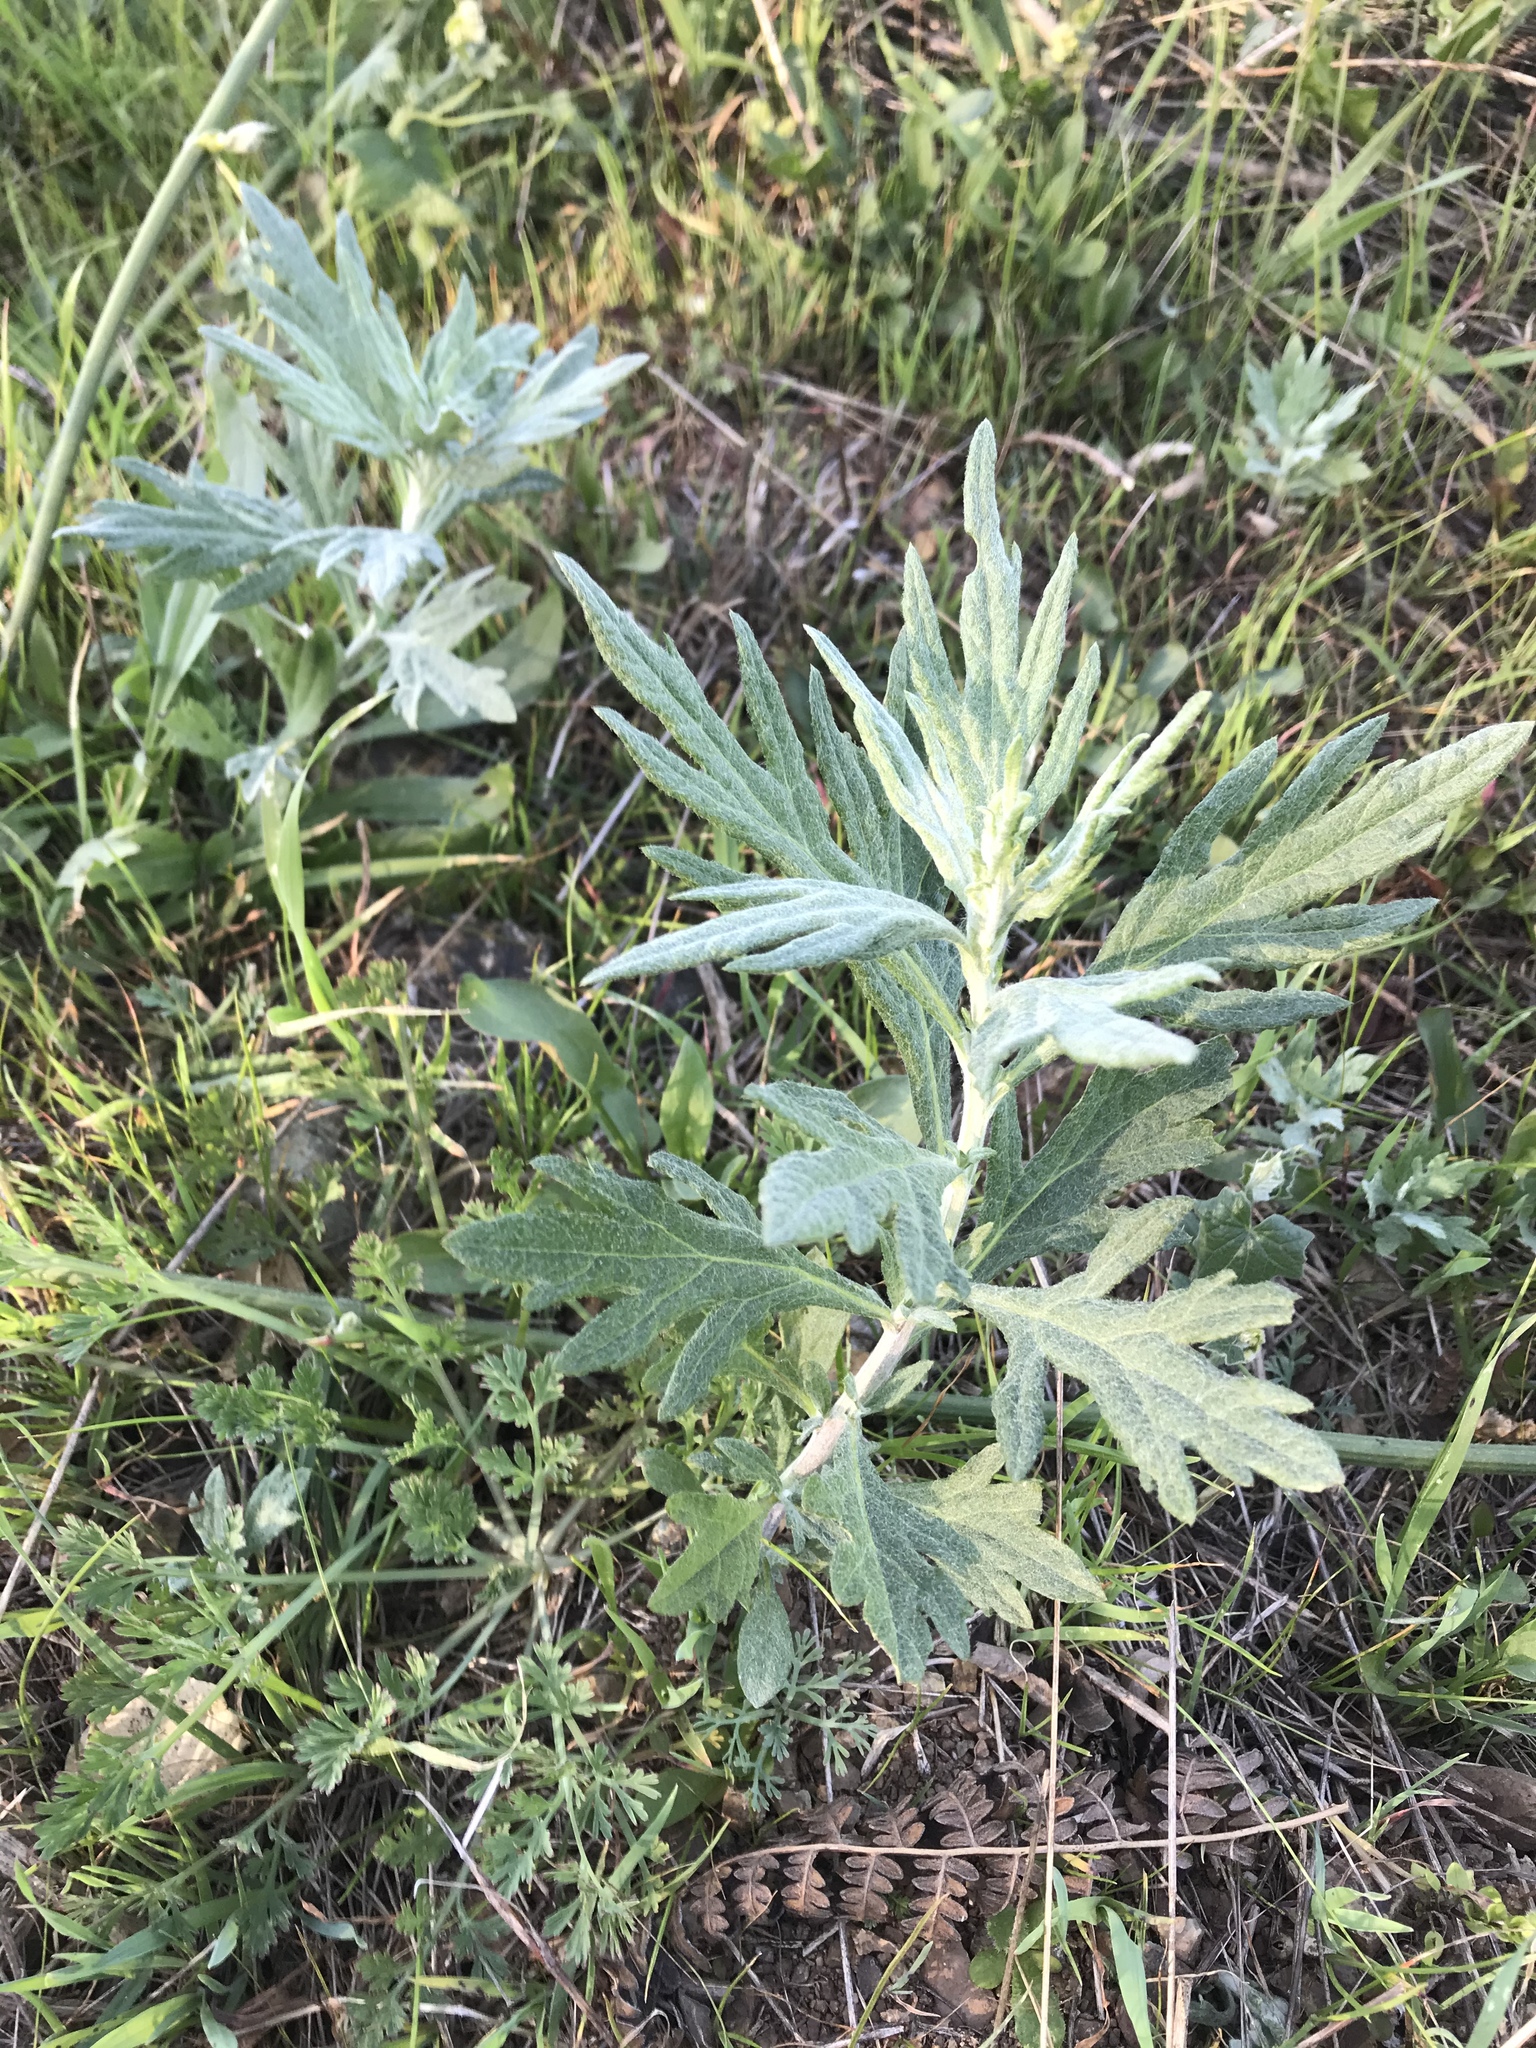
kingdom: Plantae
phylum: Tracheophyta
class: Magnoliopsida
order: Asterales
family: Asteraceae
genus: Artemisia
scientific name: Artemisia douglasiana
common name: Northwest mugwort
